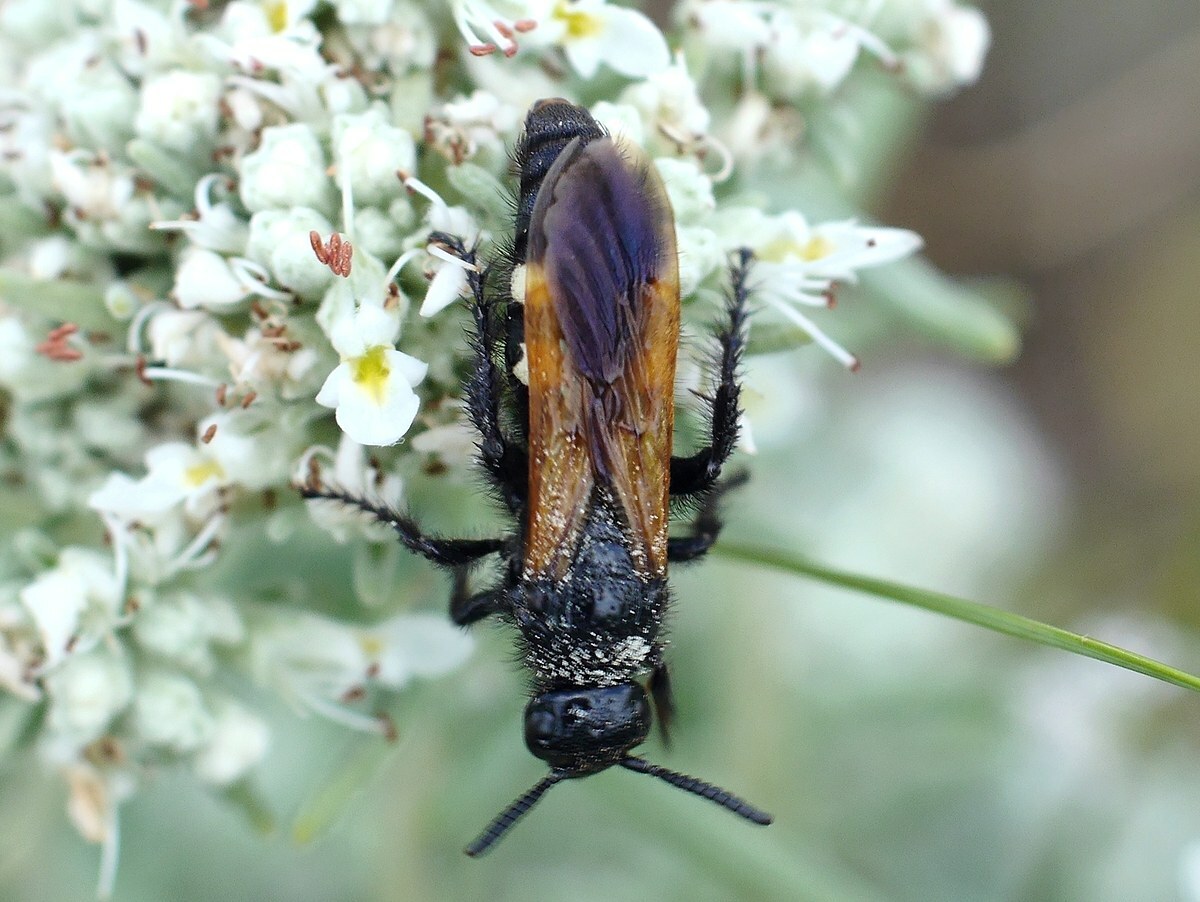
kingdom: Animalia
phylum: Arthropoda
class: Insecta
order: Hymenoptera
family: Vespidae
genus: Vespa
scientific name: Vespa sexmaculata
